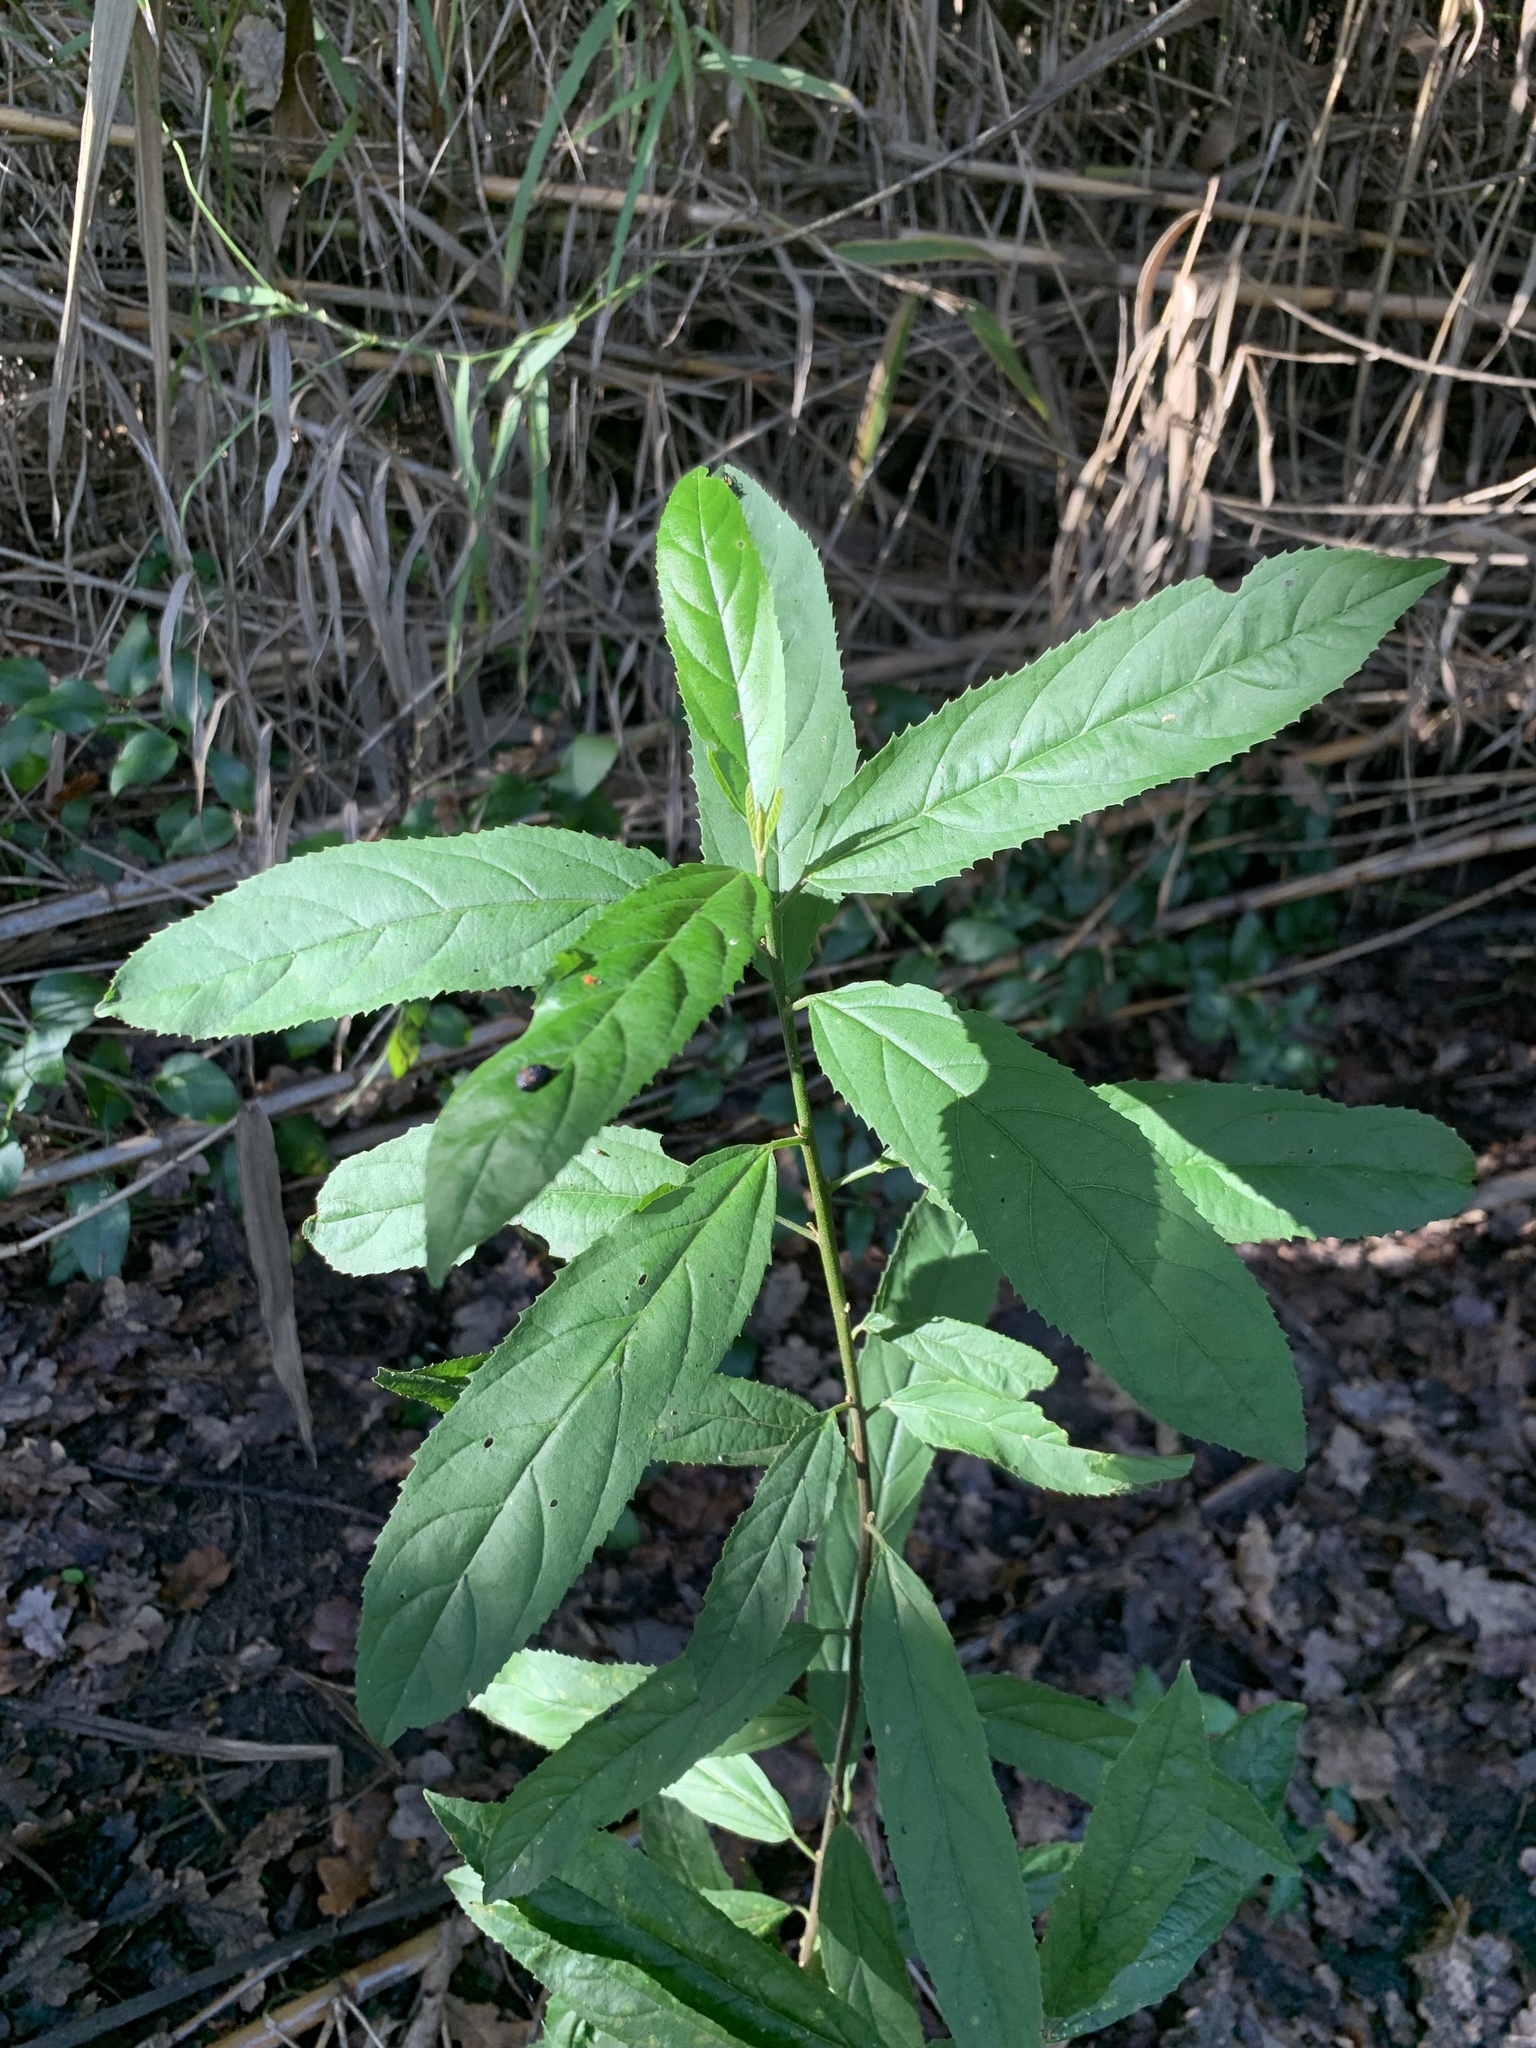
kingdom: Plantae
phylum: Tracheophyta
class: Magnoliopsida
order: Malpighiales
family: Achariaceae
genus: Kiggelaria
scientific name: Kiggelaria africana
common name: Wild peach
